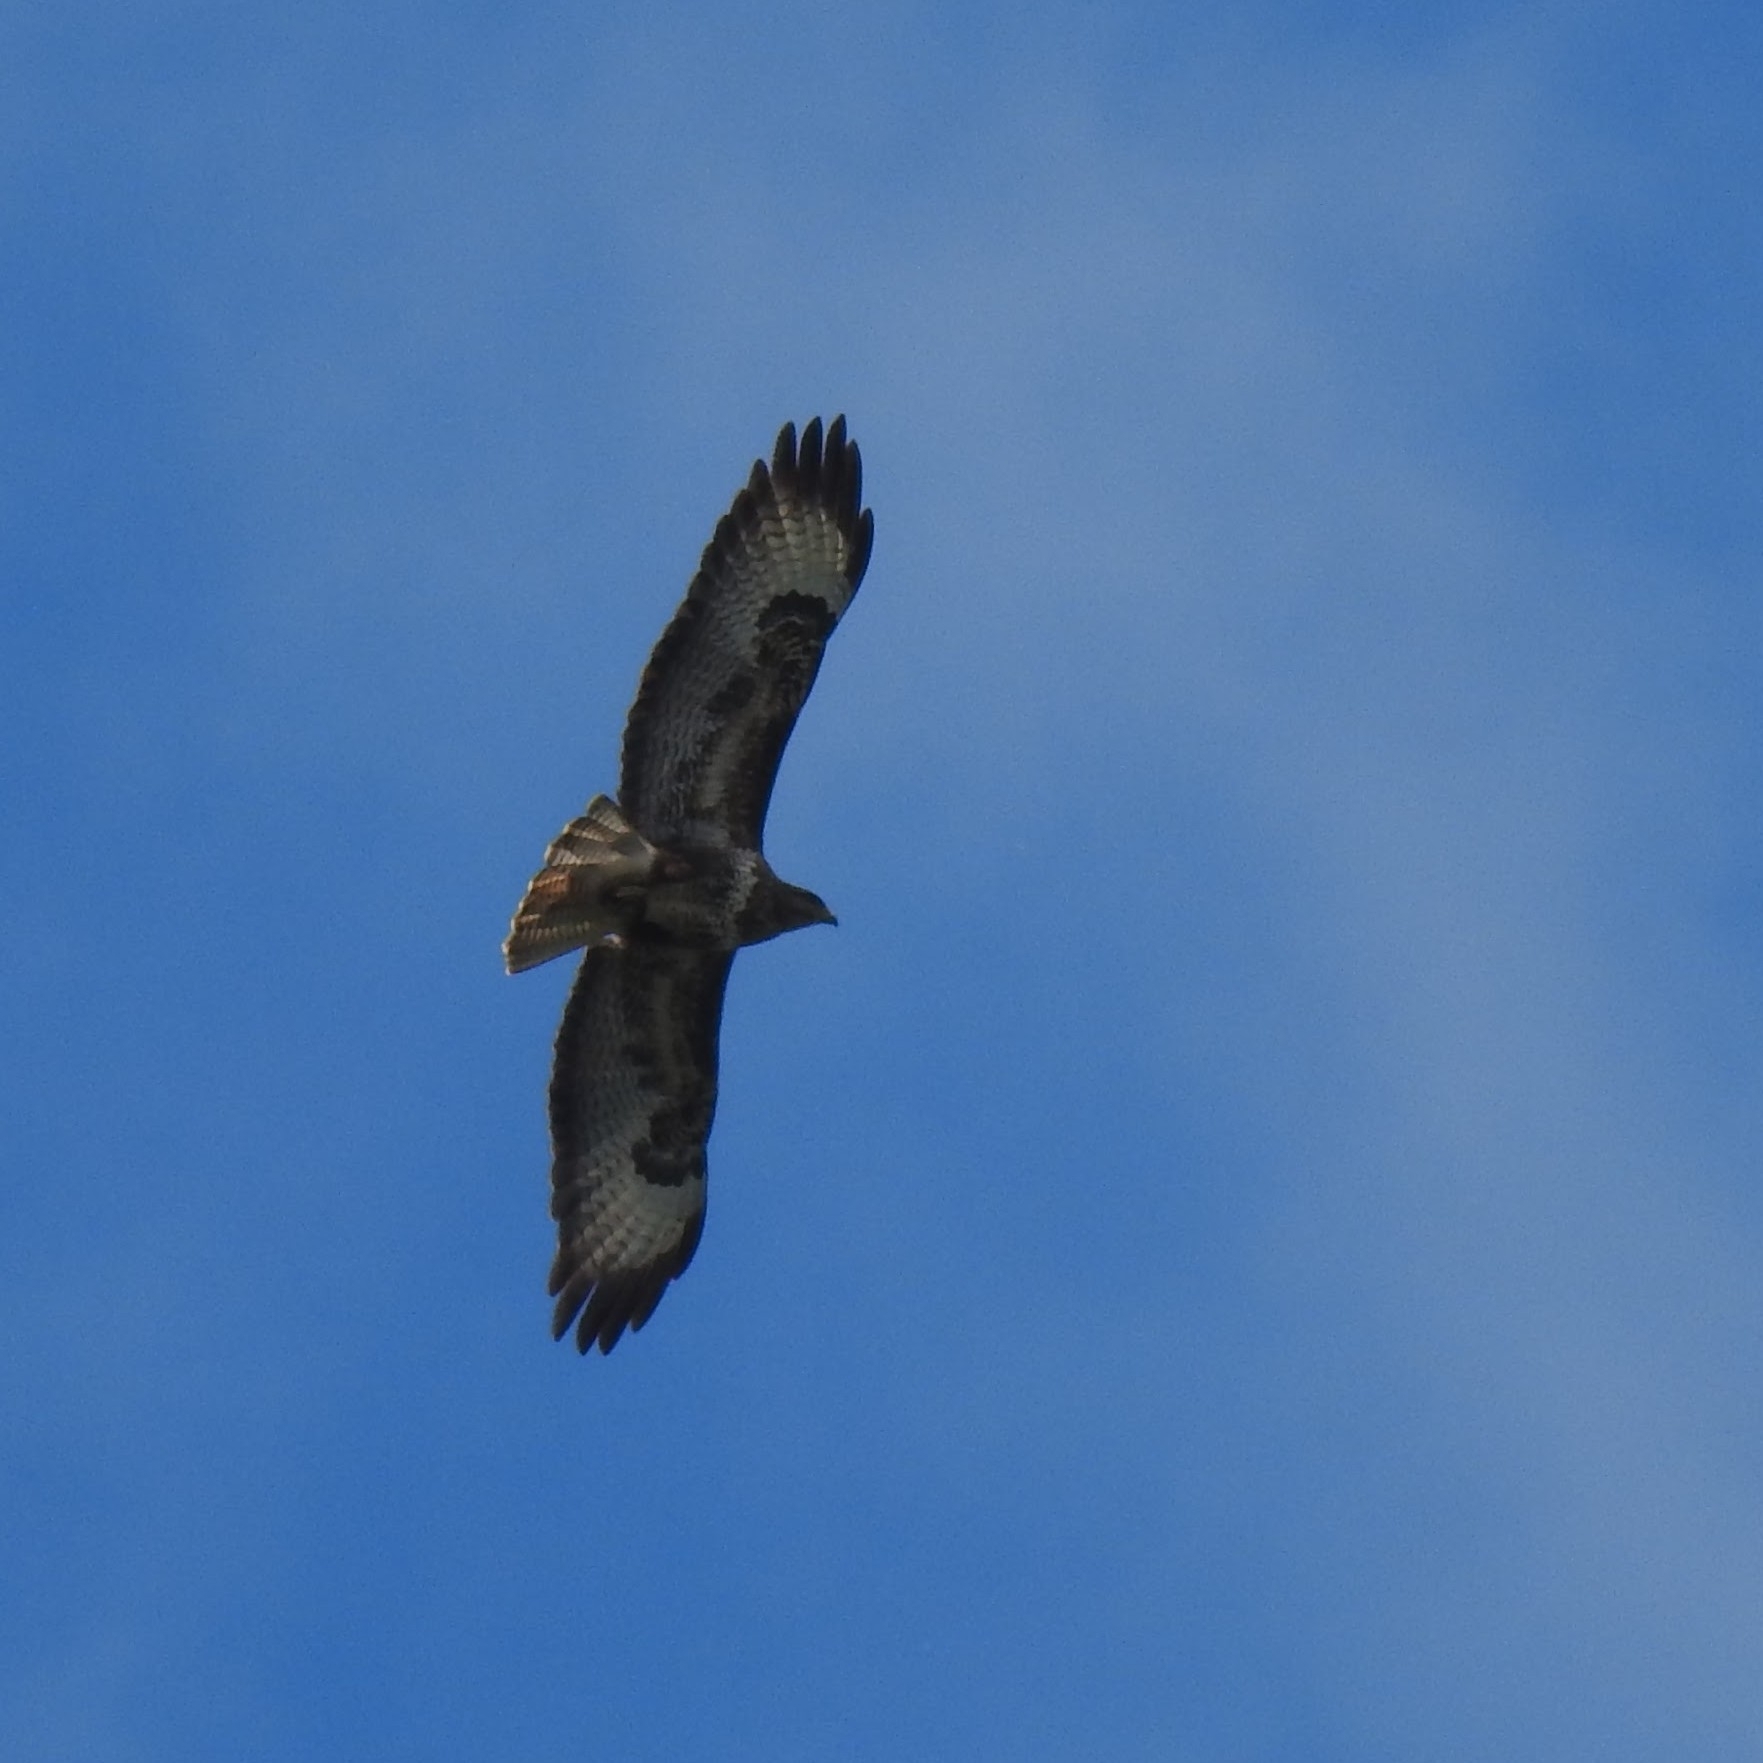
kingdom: Animalia
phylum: Chordata
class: Aves
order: Accipitriformes
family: Accipitridae
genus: Buteo
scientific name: Buteo buteo
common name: Common buzzard
